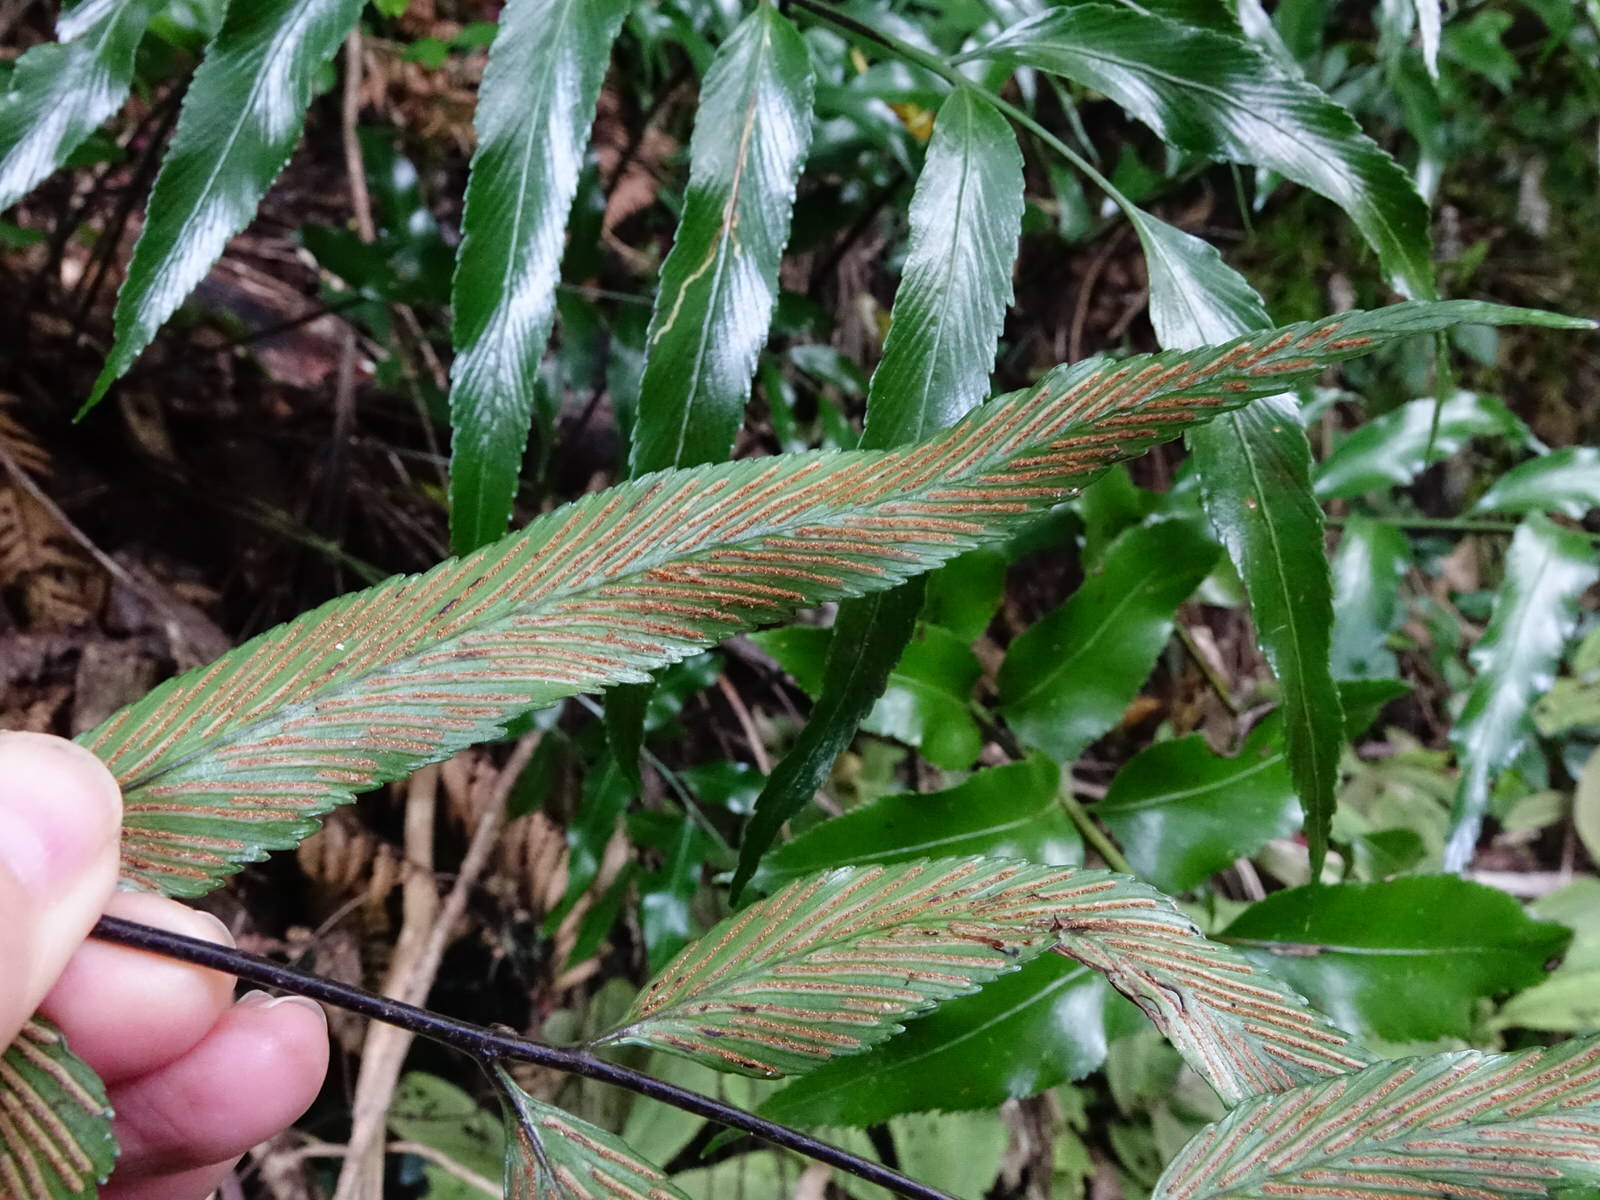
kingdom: Plantae
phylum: Tracheophyta
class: Polypodiopsida
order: Polypodiales
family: Aspleniaceae
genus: Asplenium
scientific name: Asplenium oblongifolium
